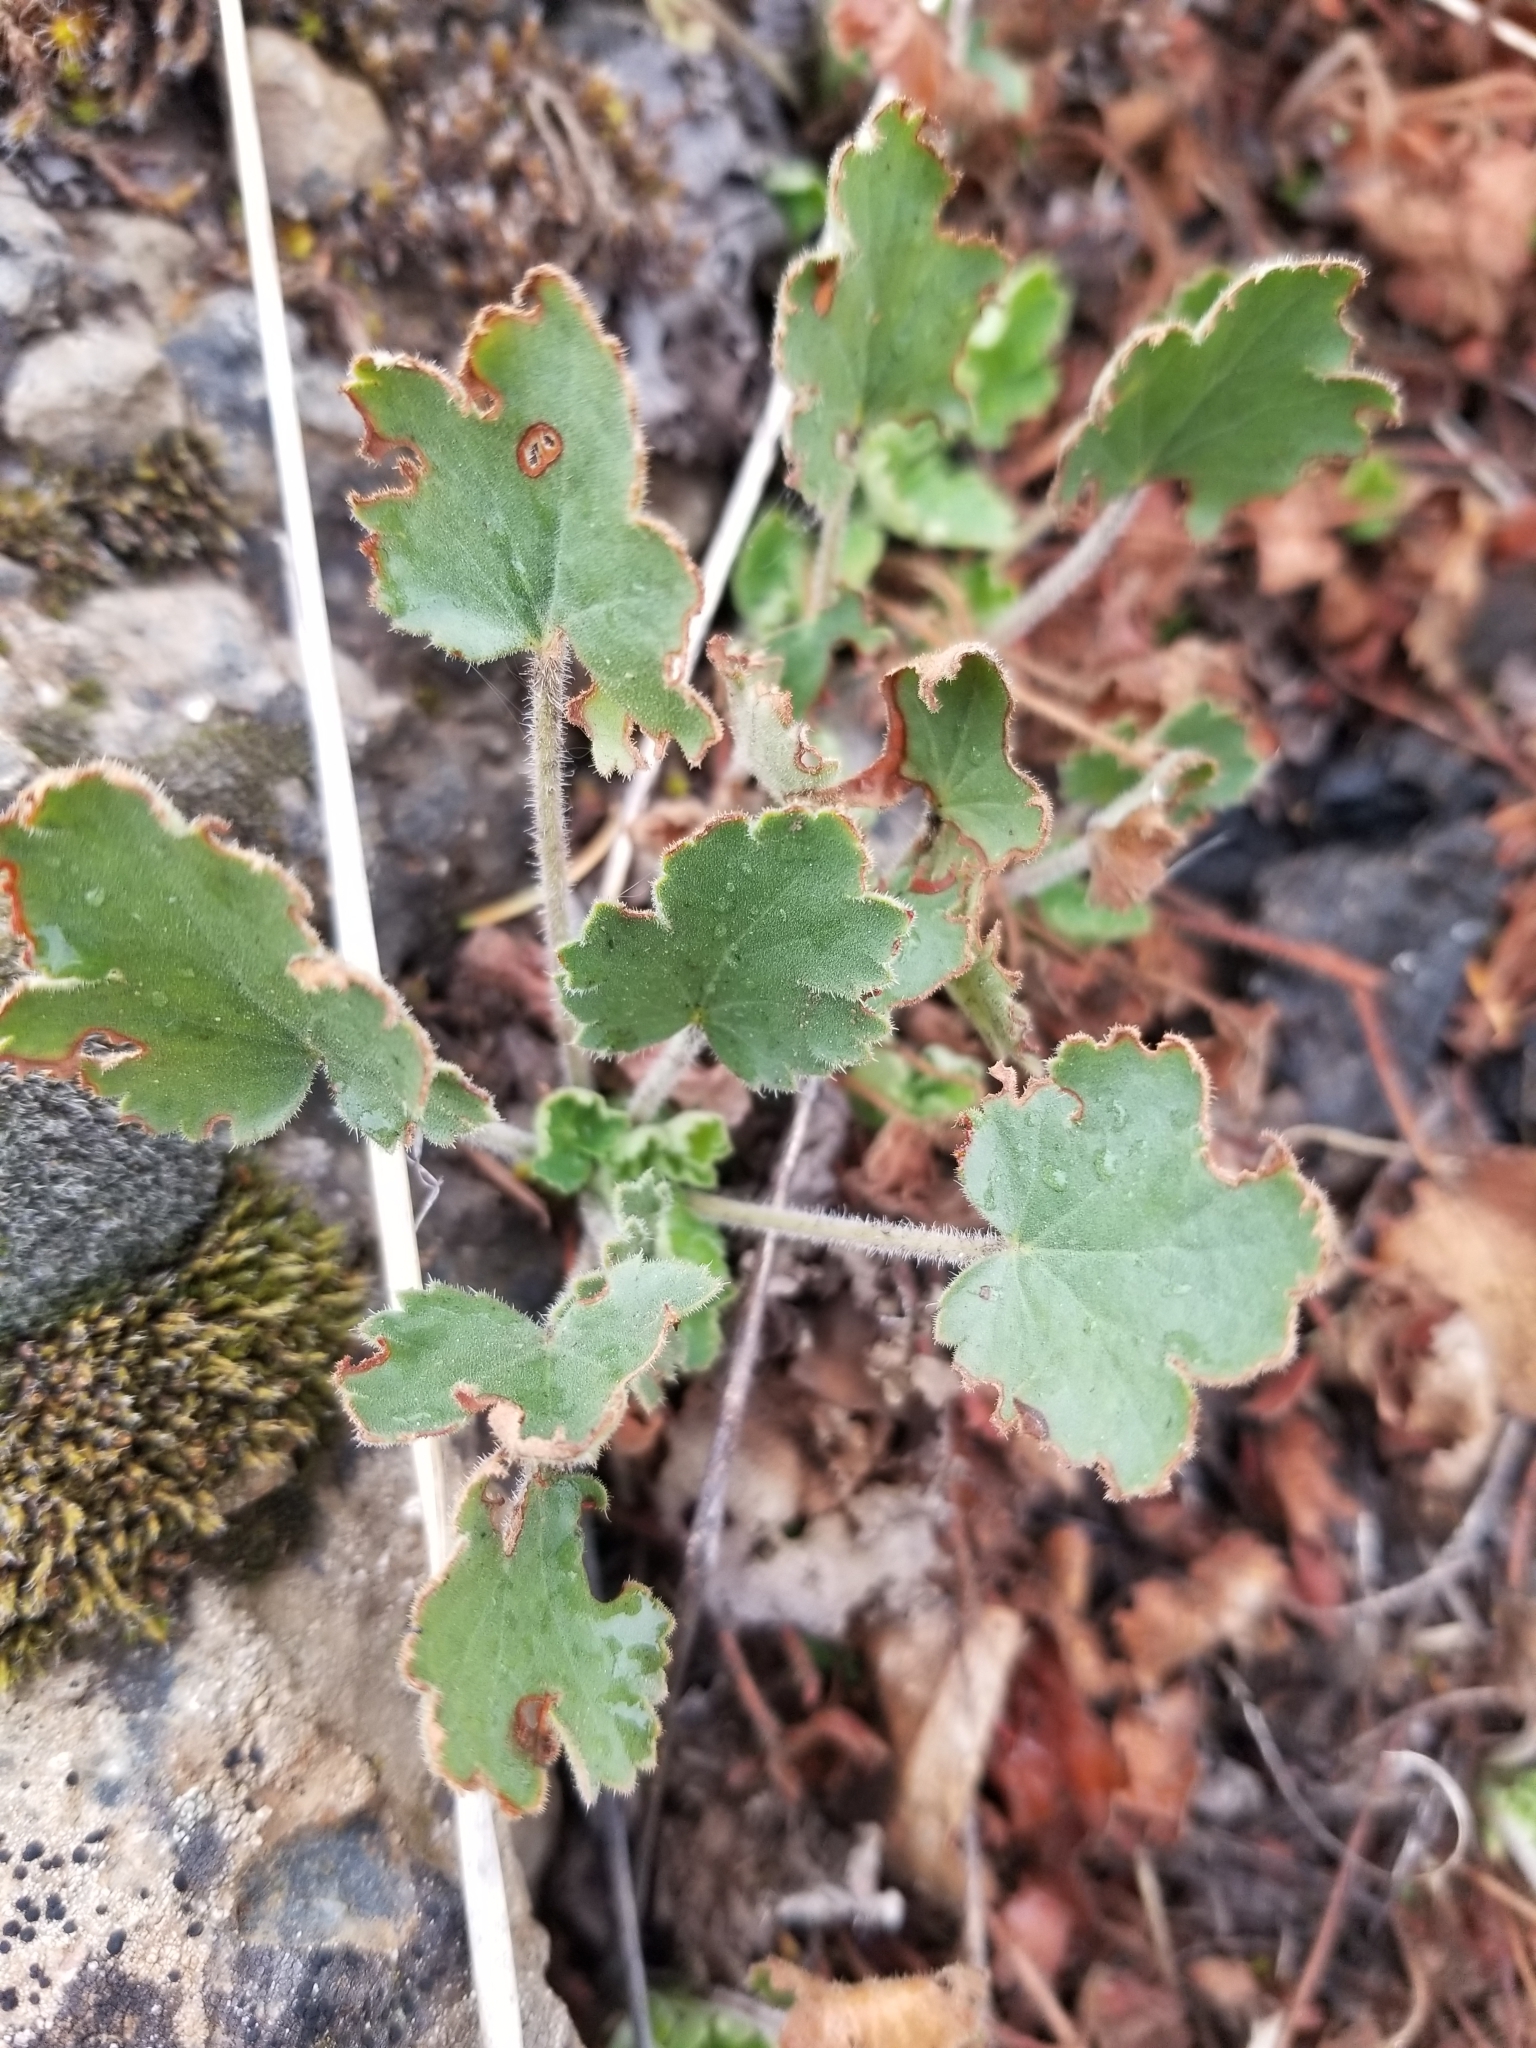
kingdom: Plantae
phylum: Tracheophyta
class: Magnoliopsida
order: Saxifragales
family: Saxifragaceae
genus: Heuchera
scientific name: Heuchera cylindrica
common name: Mat alumroot
